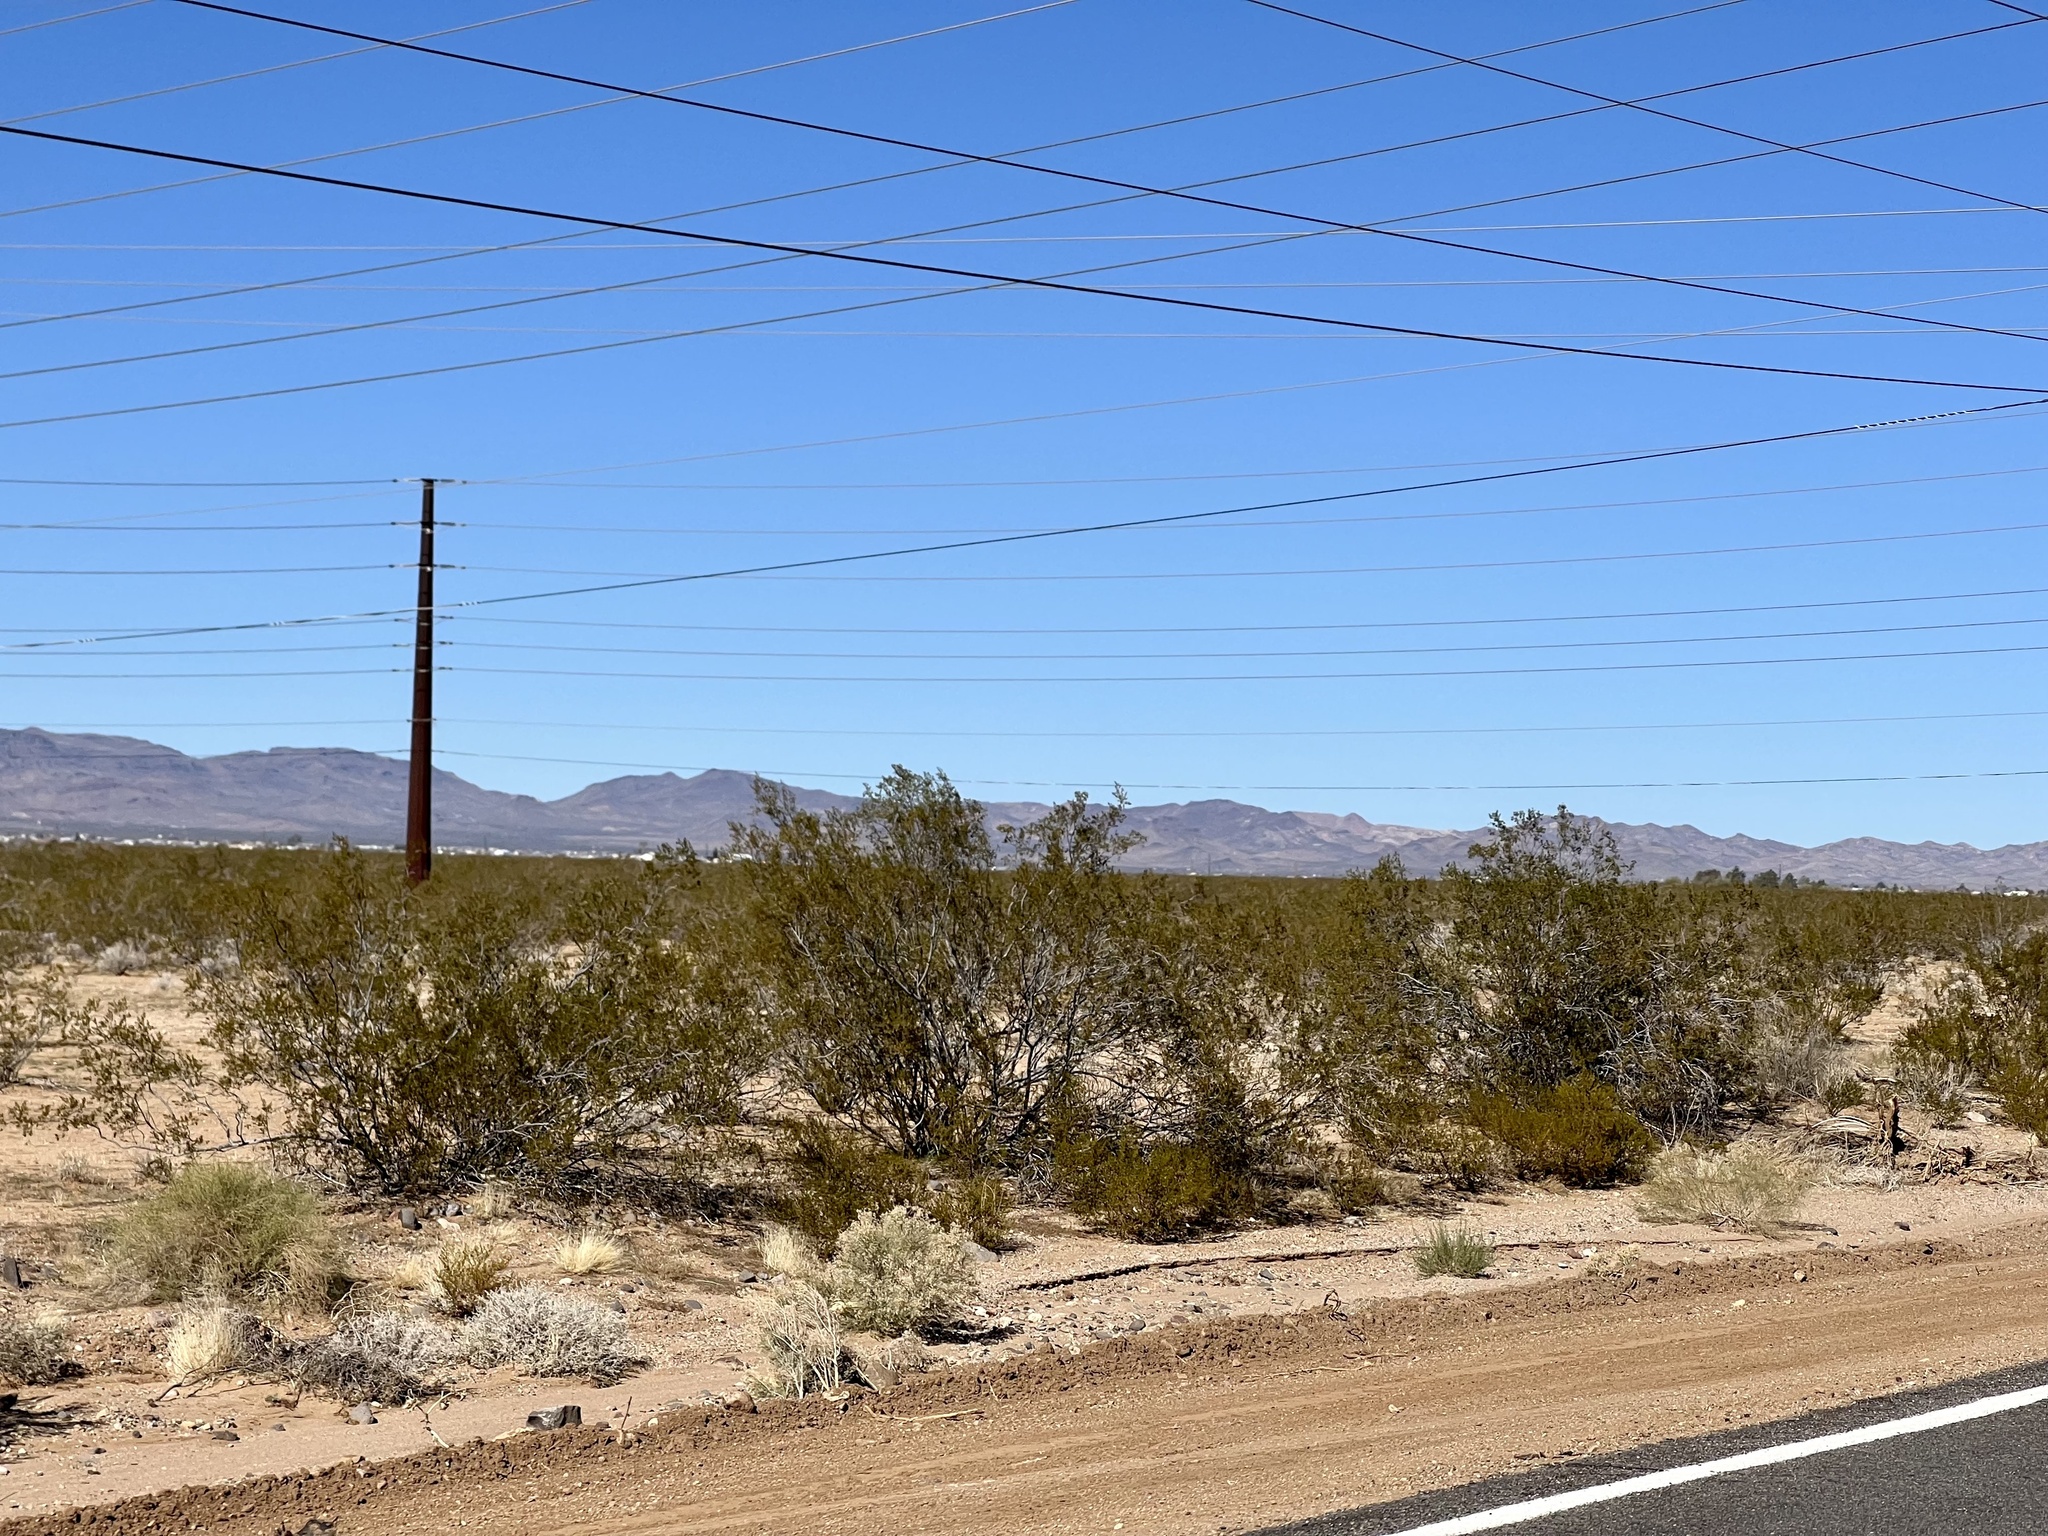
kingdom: Plantae
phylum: Tracheophyta
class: Magnoliopsida
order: Zygophyllales
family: Zygophyllaceae
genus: Larrea
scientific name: Larrea tridentata
